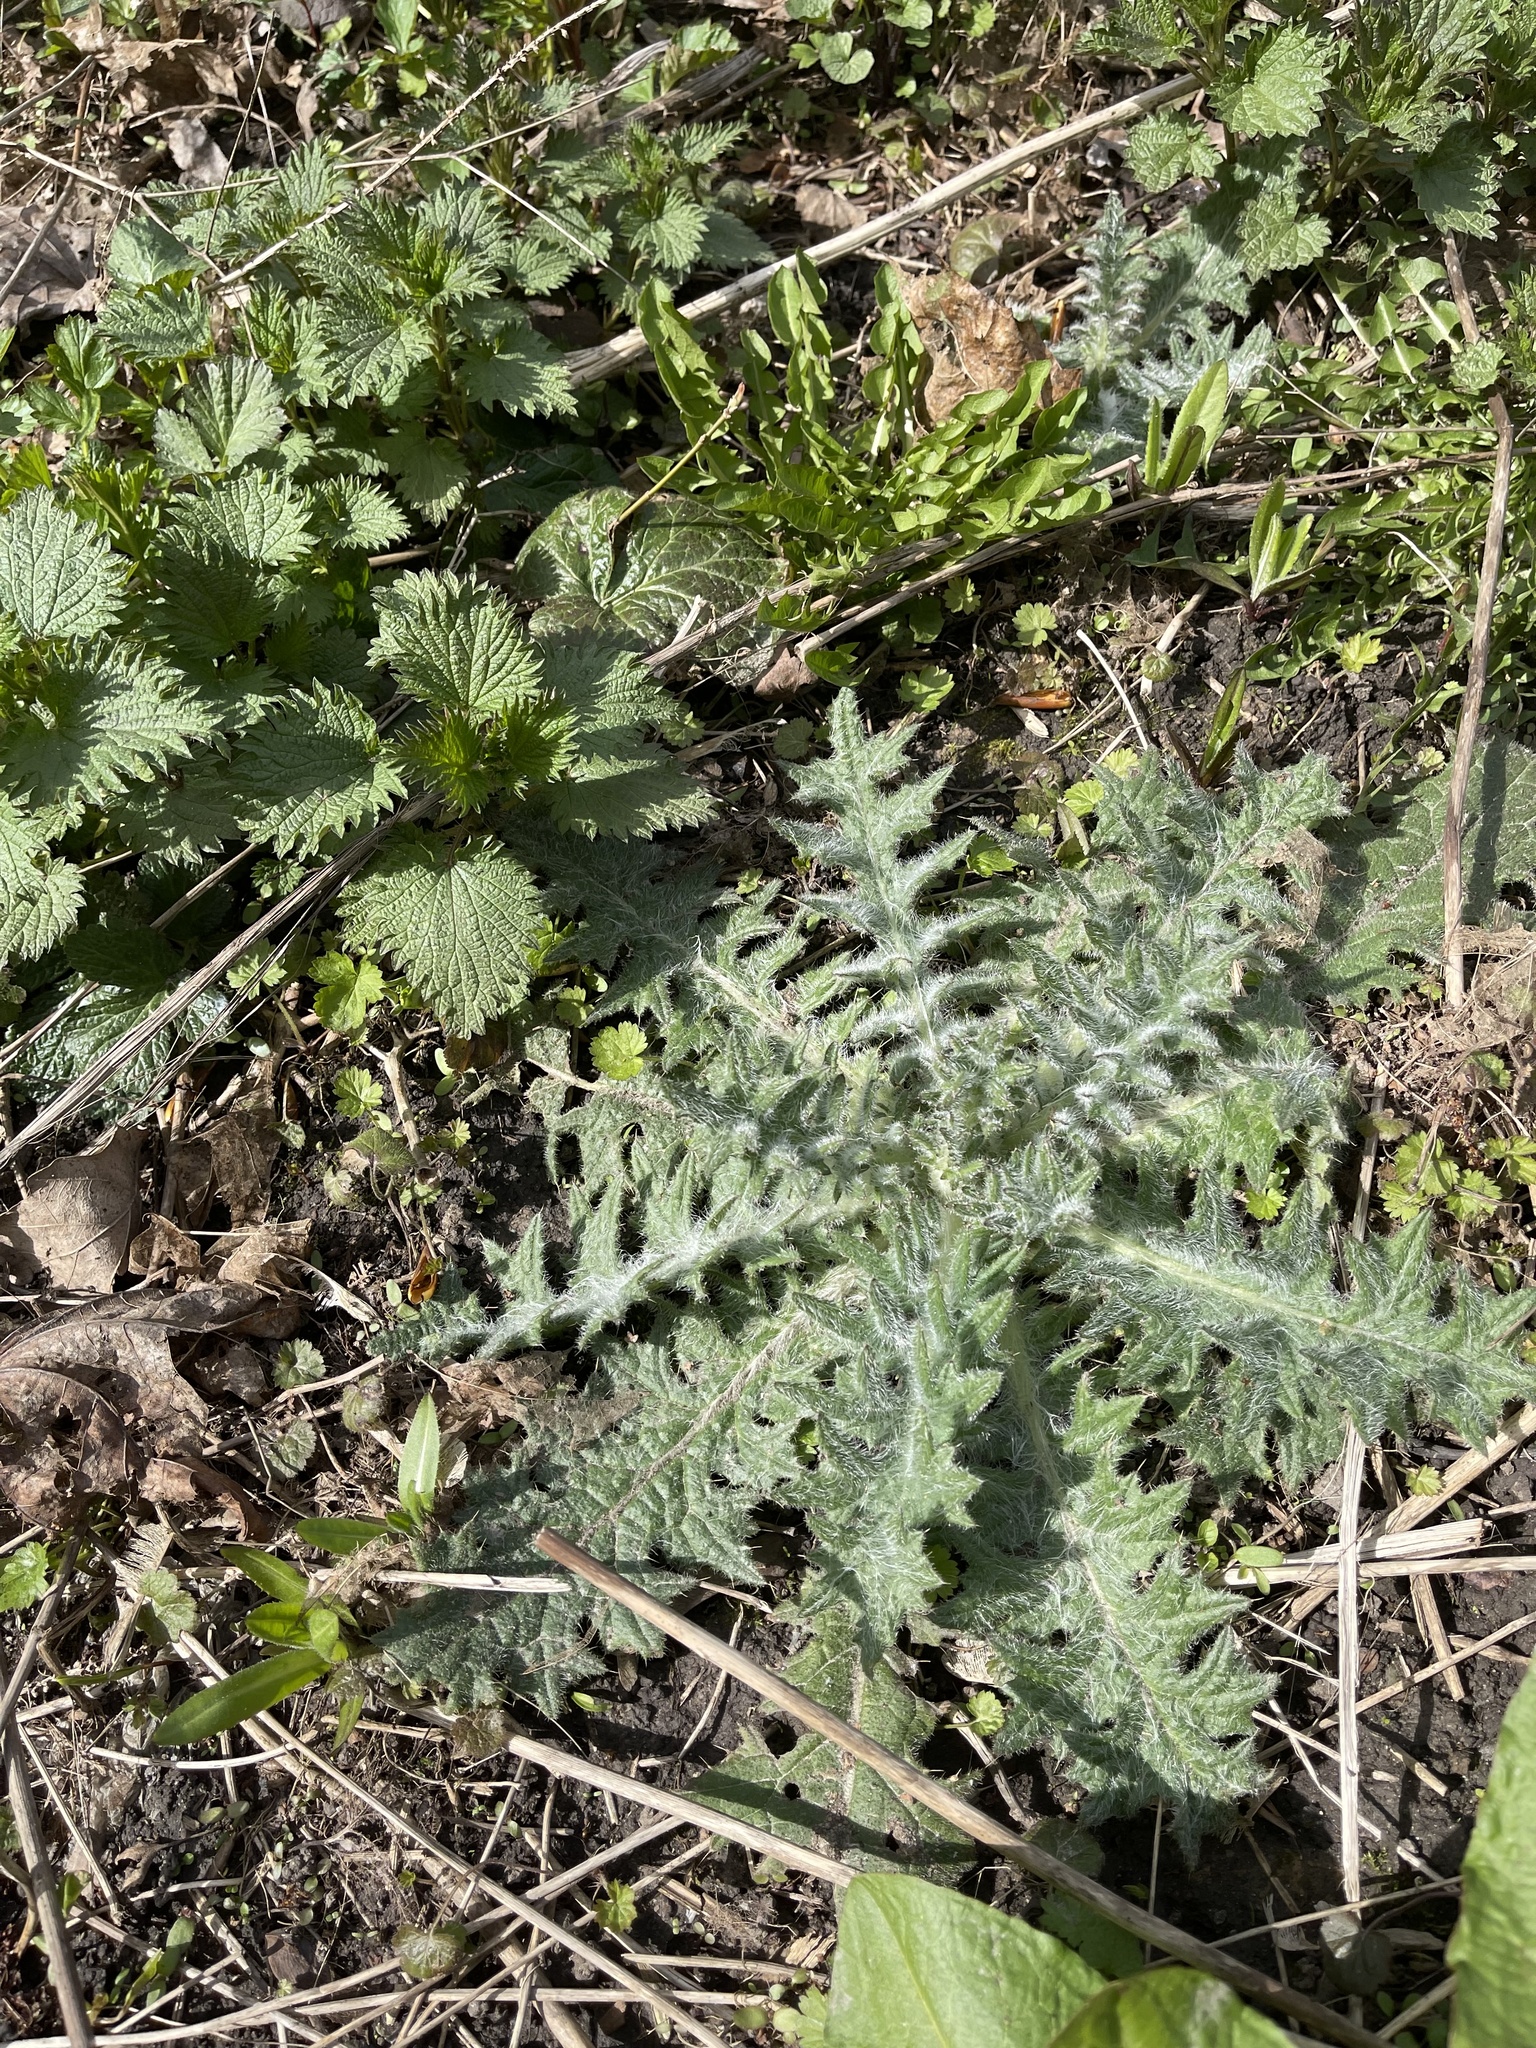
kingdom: Plantae
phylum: Tracheophyta
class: Magnoliopsida
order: Asterales
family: Asteraceae
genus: Cirsium
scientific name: Cirsium vulgare
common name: Bull thistle
